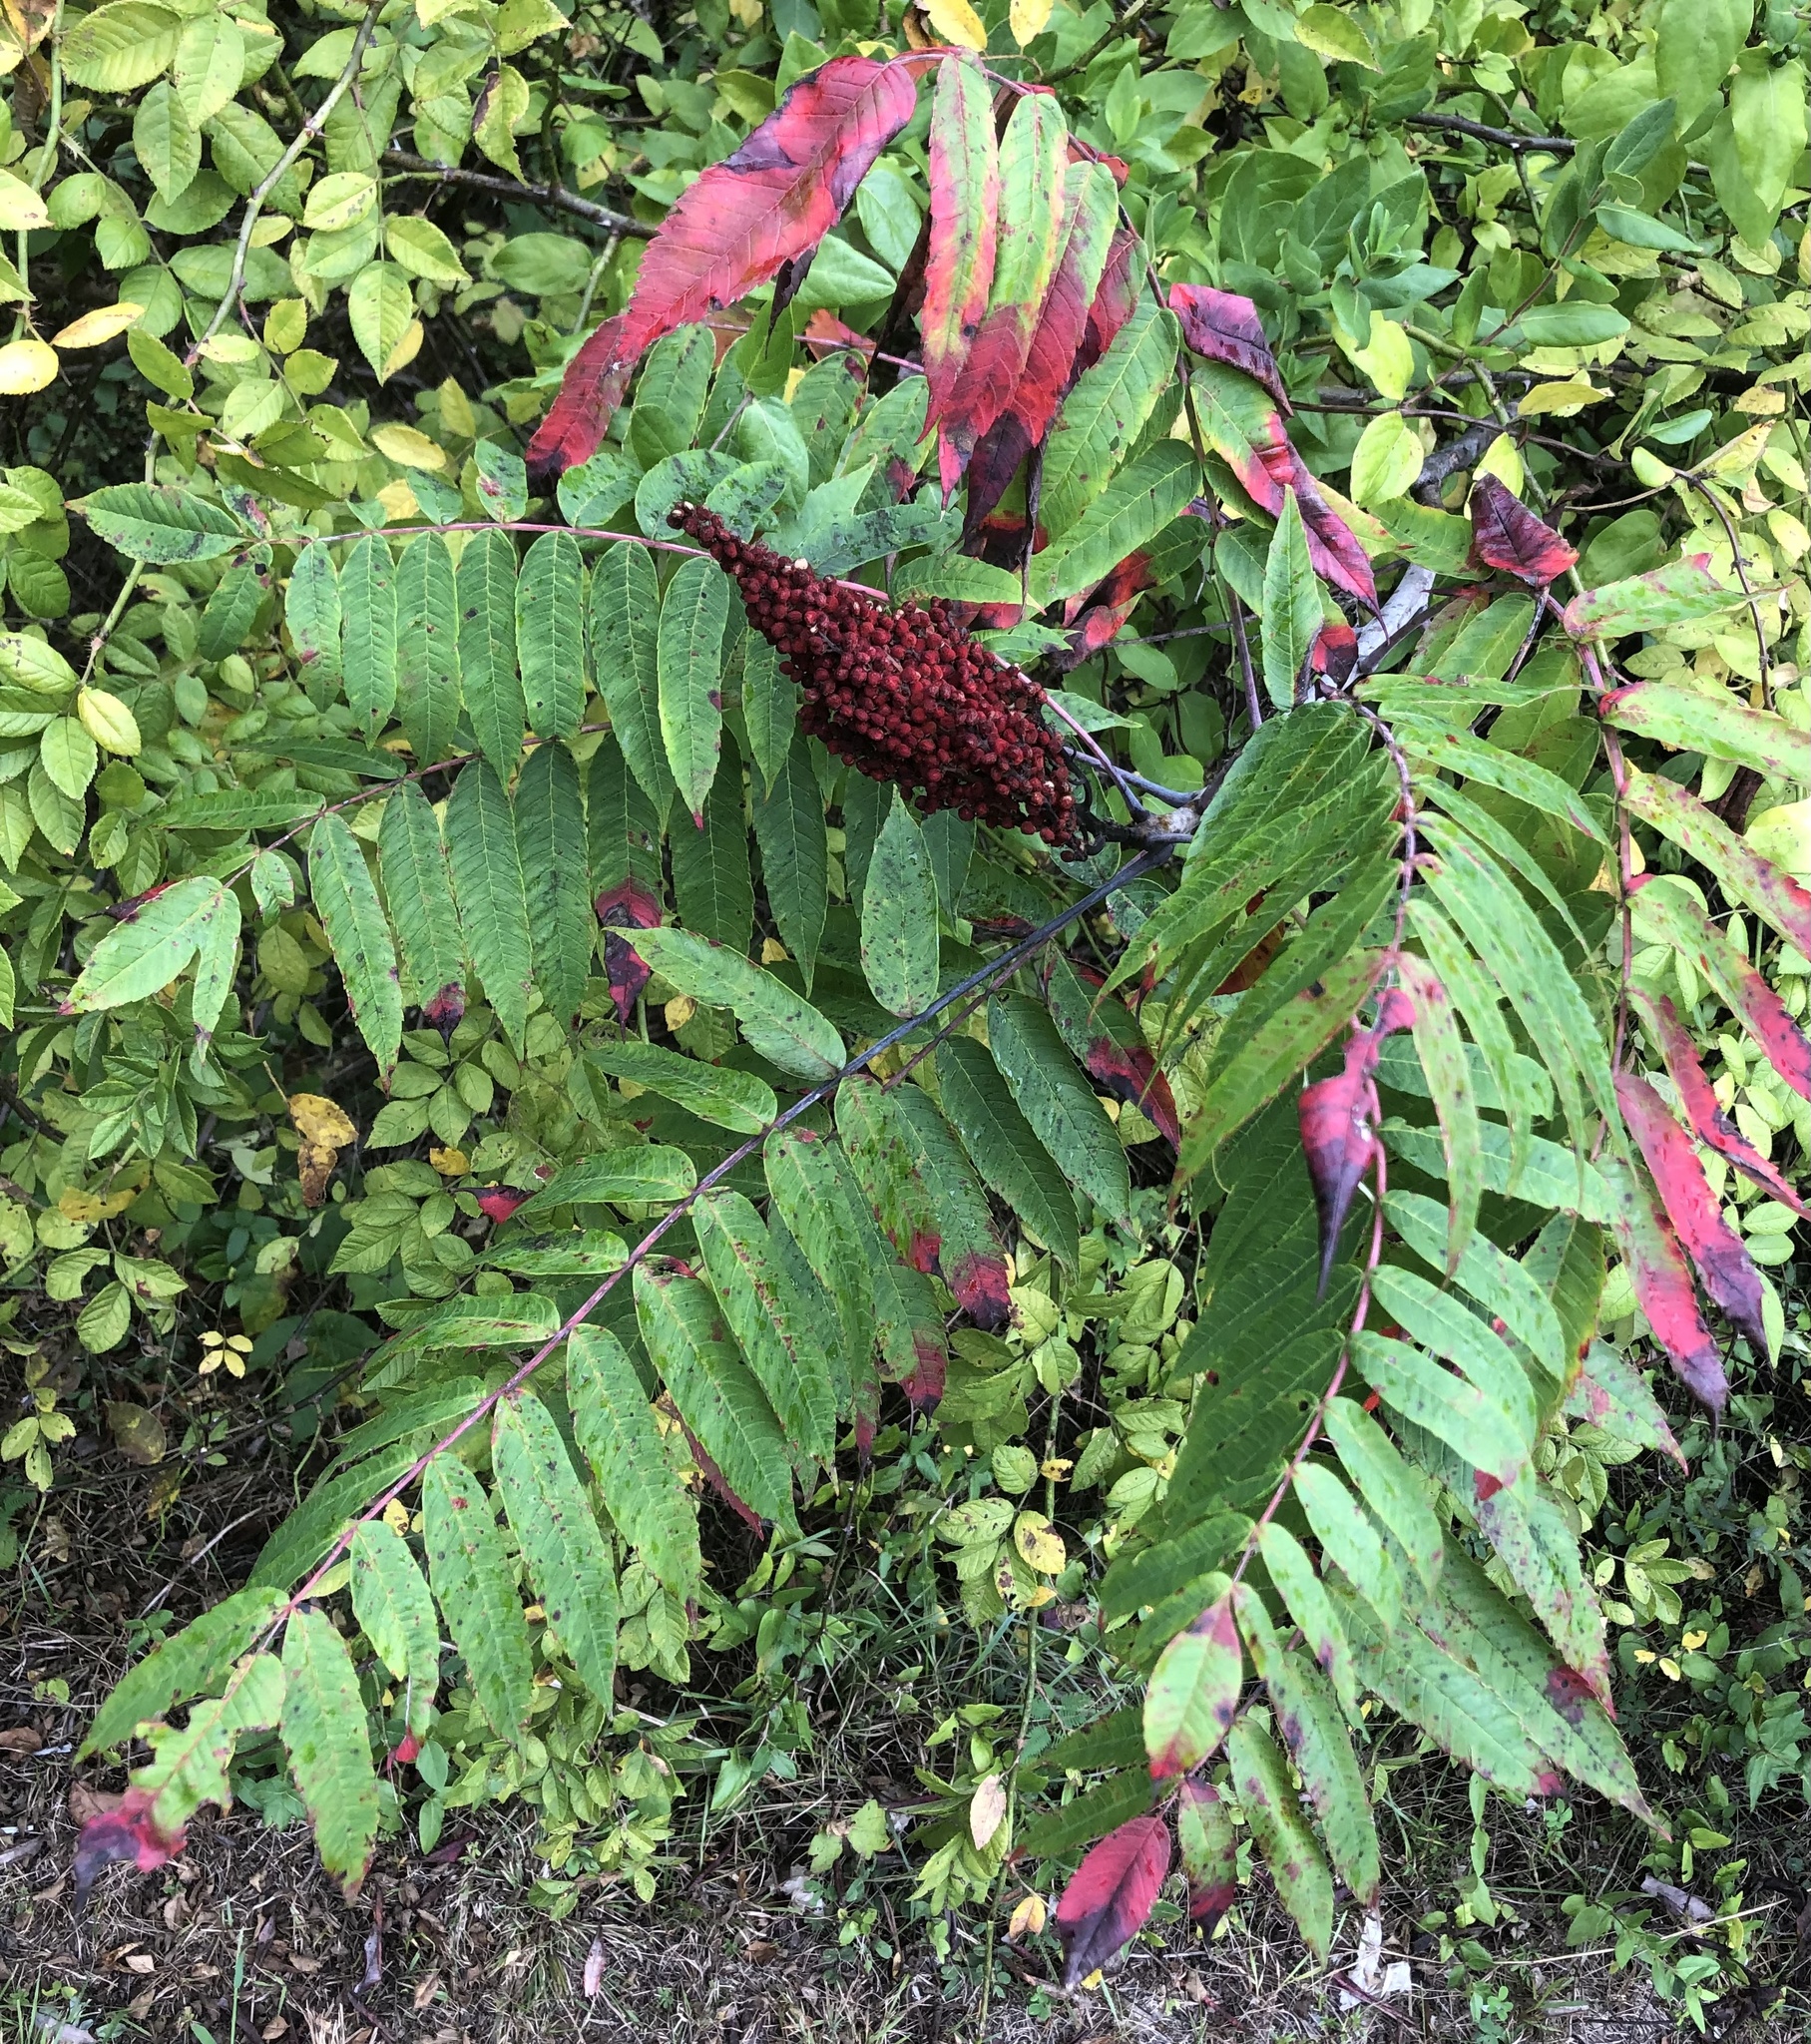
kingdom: Plantae
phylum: Tracheophyta
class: Magnoliopsida
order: Sapindales
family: Anacardiaceae
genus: Rhus
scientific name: Rhus glabra
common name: Scarlet sumac
